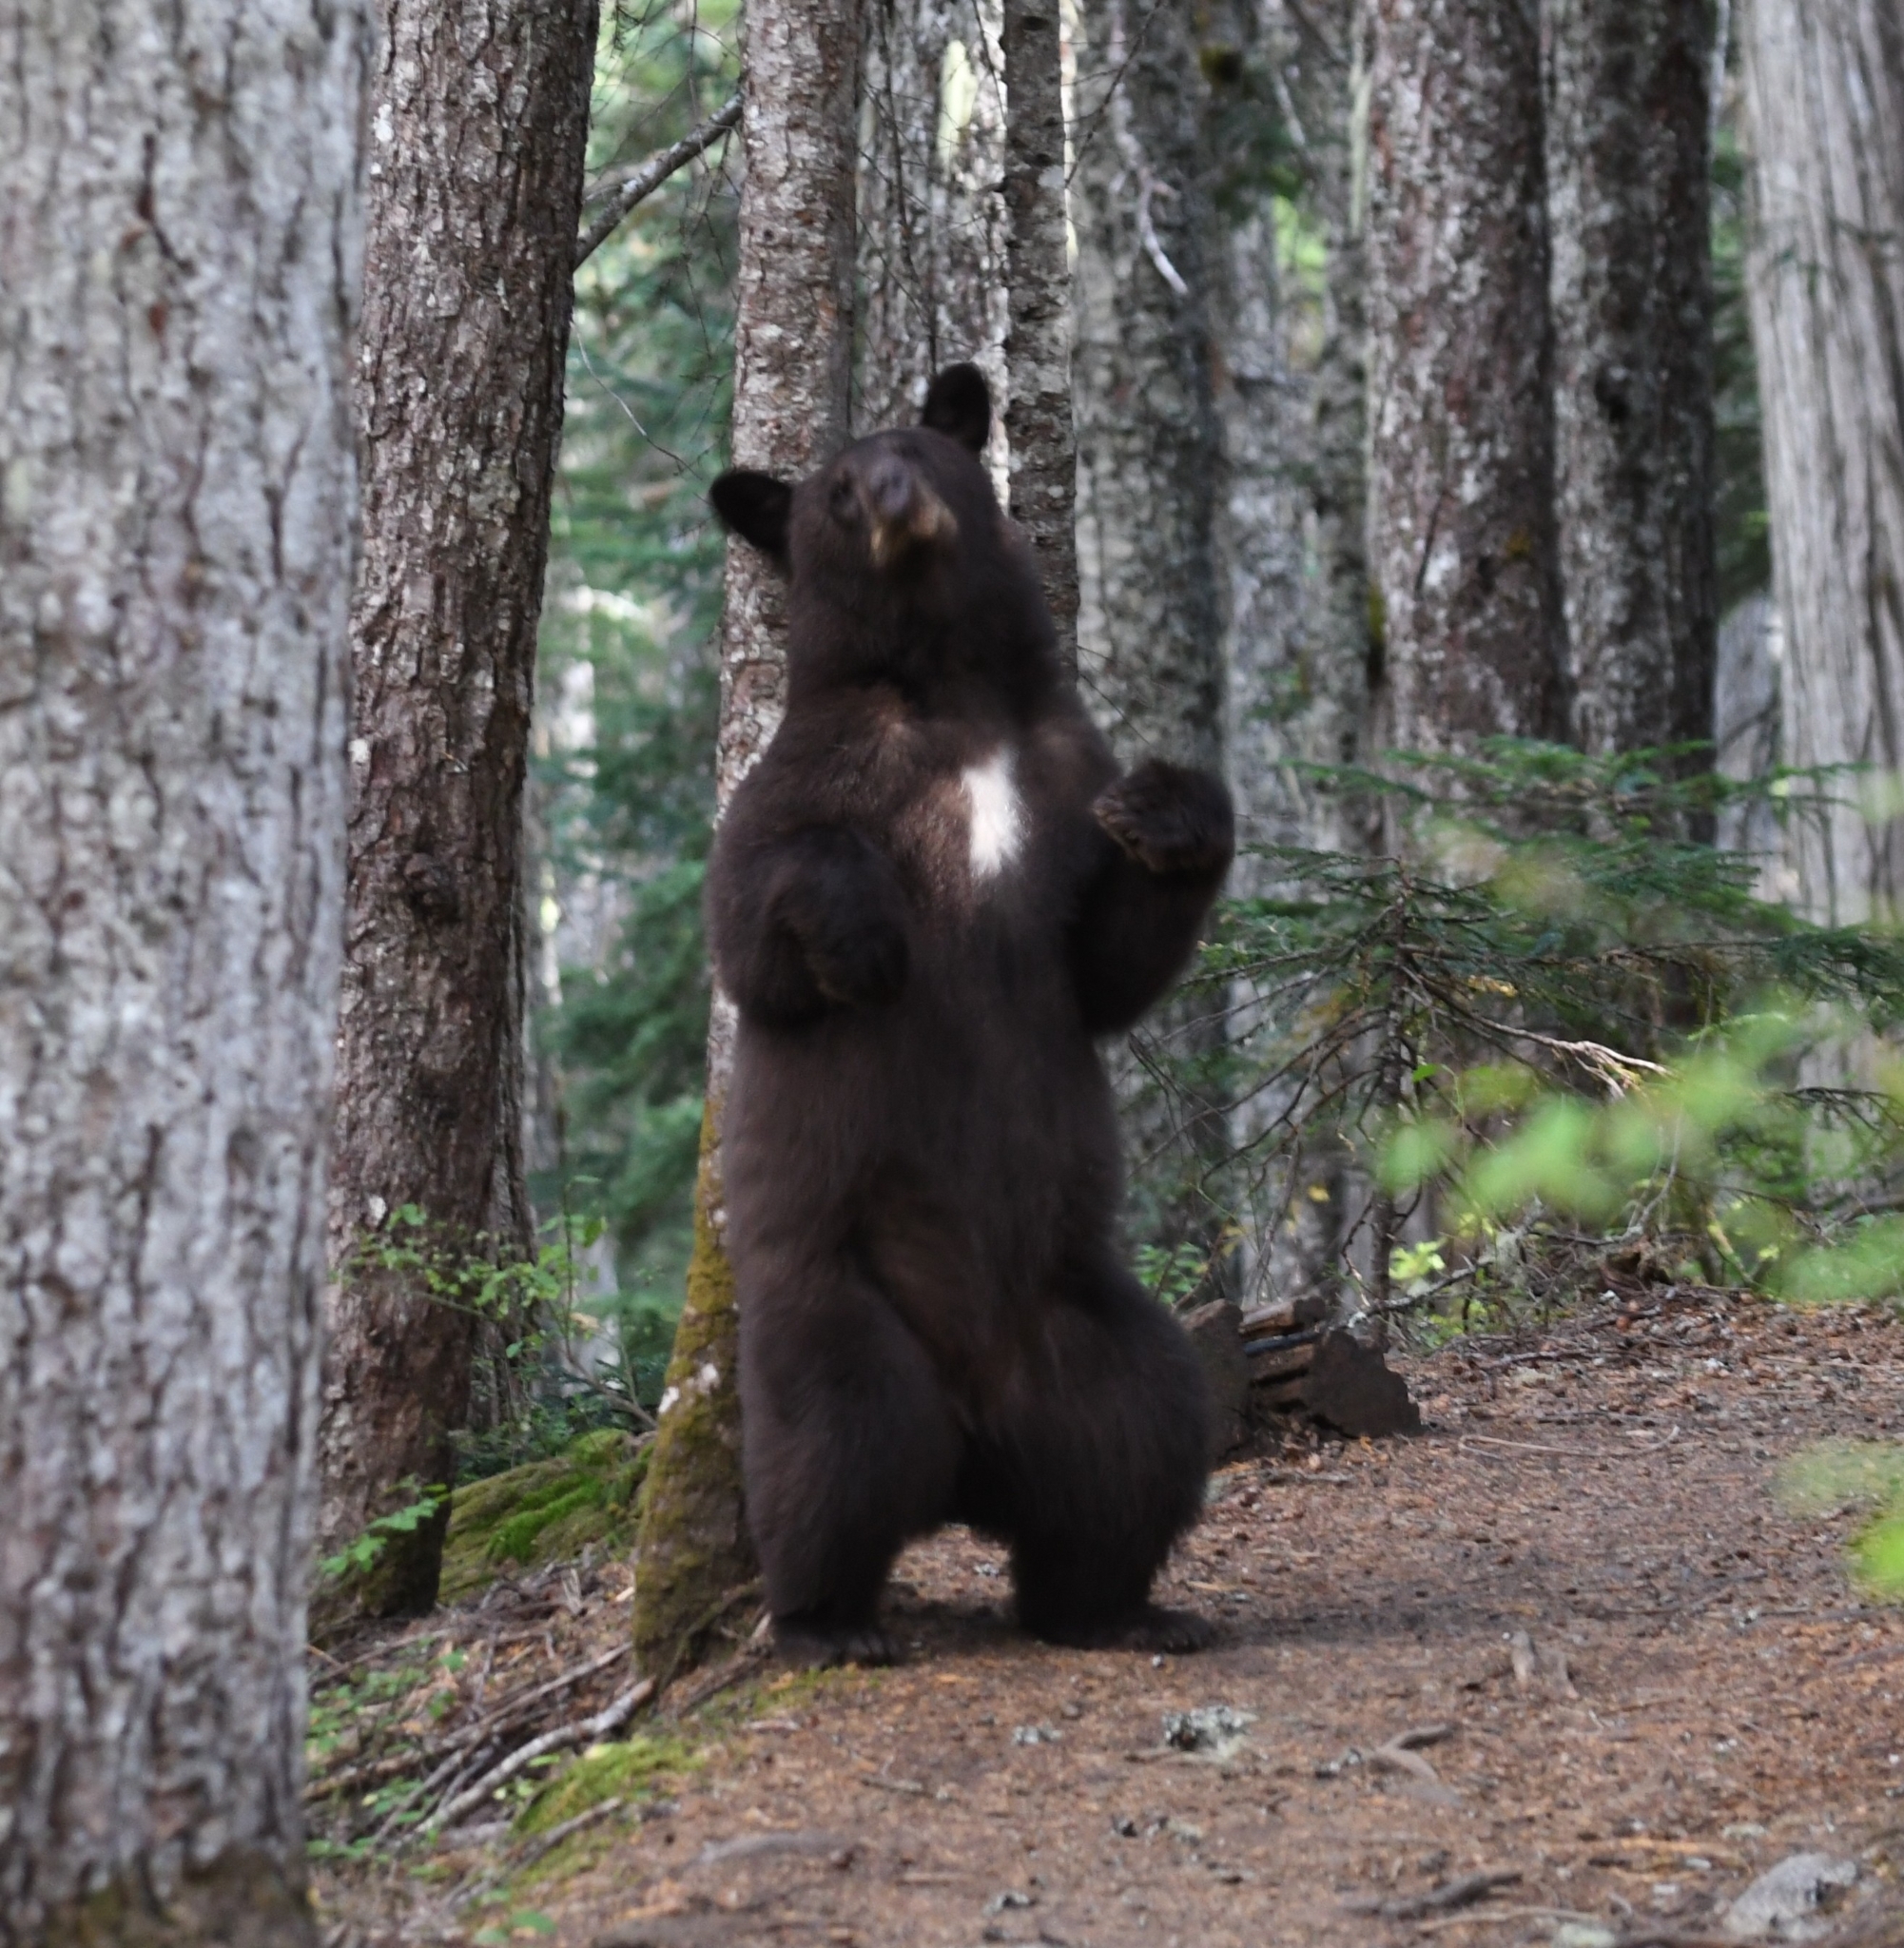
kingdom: Animalia
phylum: Chordata
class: Mammalia
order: Carnivora
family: Ursidae
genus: Ursus
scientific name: Ursus americanus
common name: American black bear
